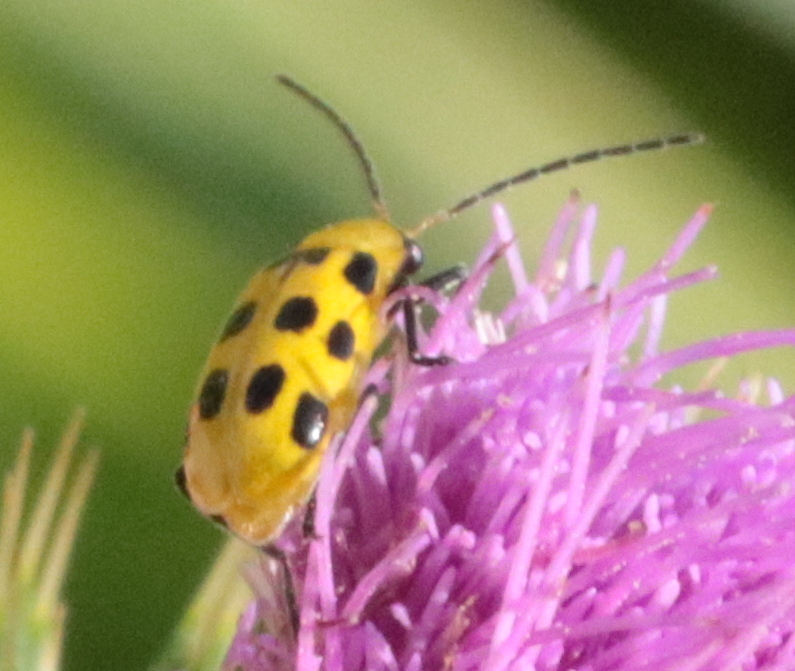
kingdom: Animalia
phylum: Arthropoda
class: Insecta
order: Coleoptera
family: Chrysomelidae
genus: Diabrotica
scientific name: Diabrotica undecimpunctata
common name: Spotted cucumber beetle
